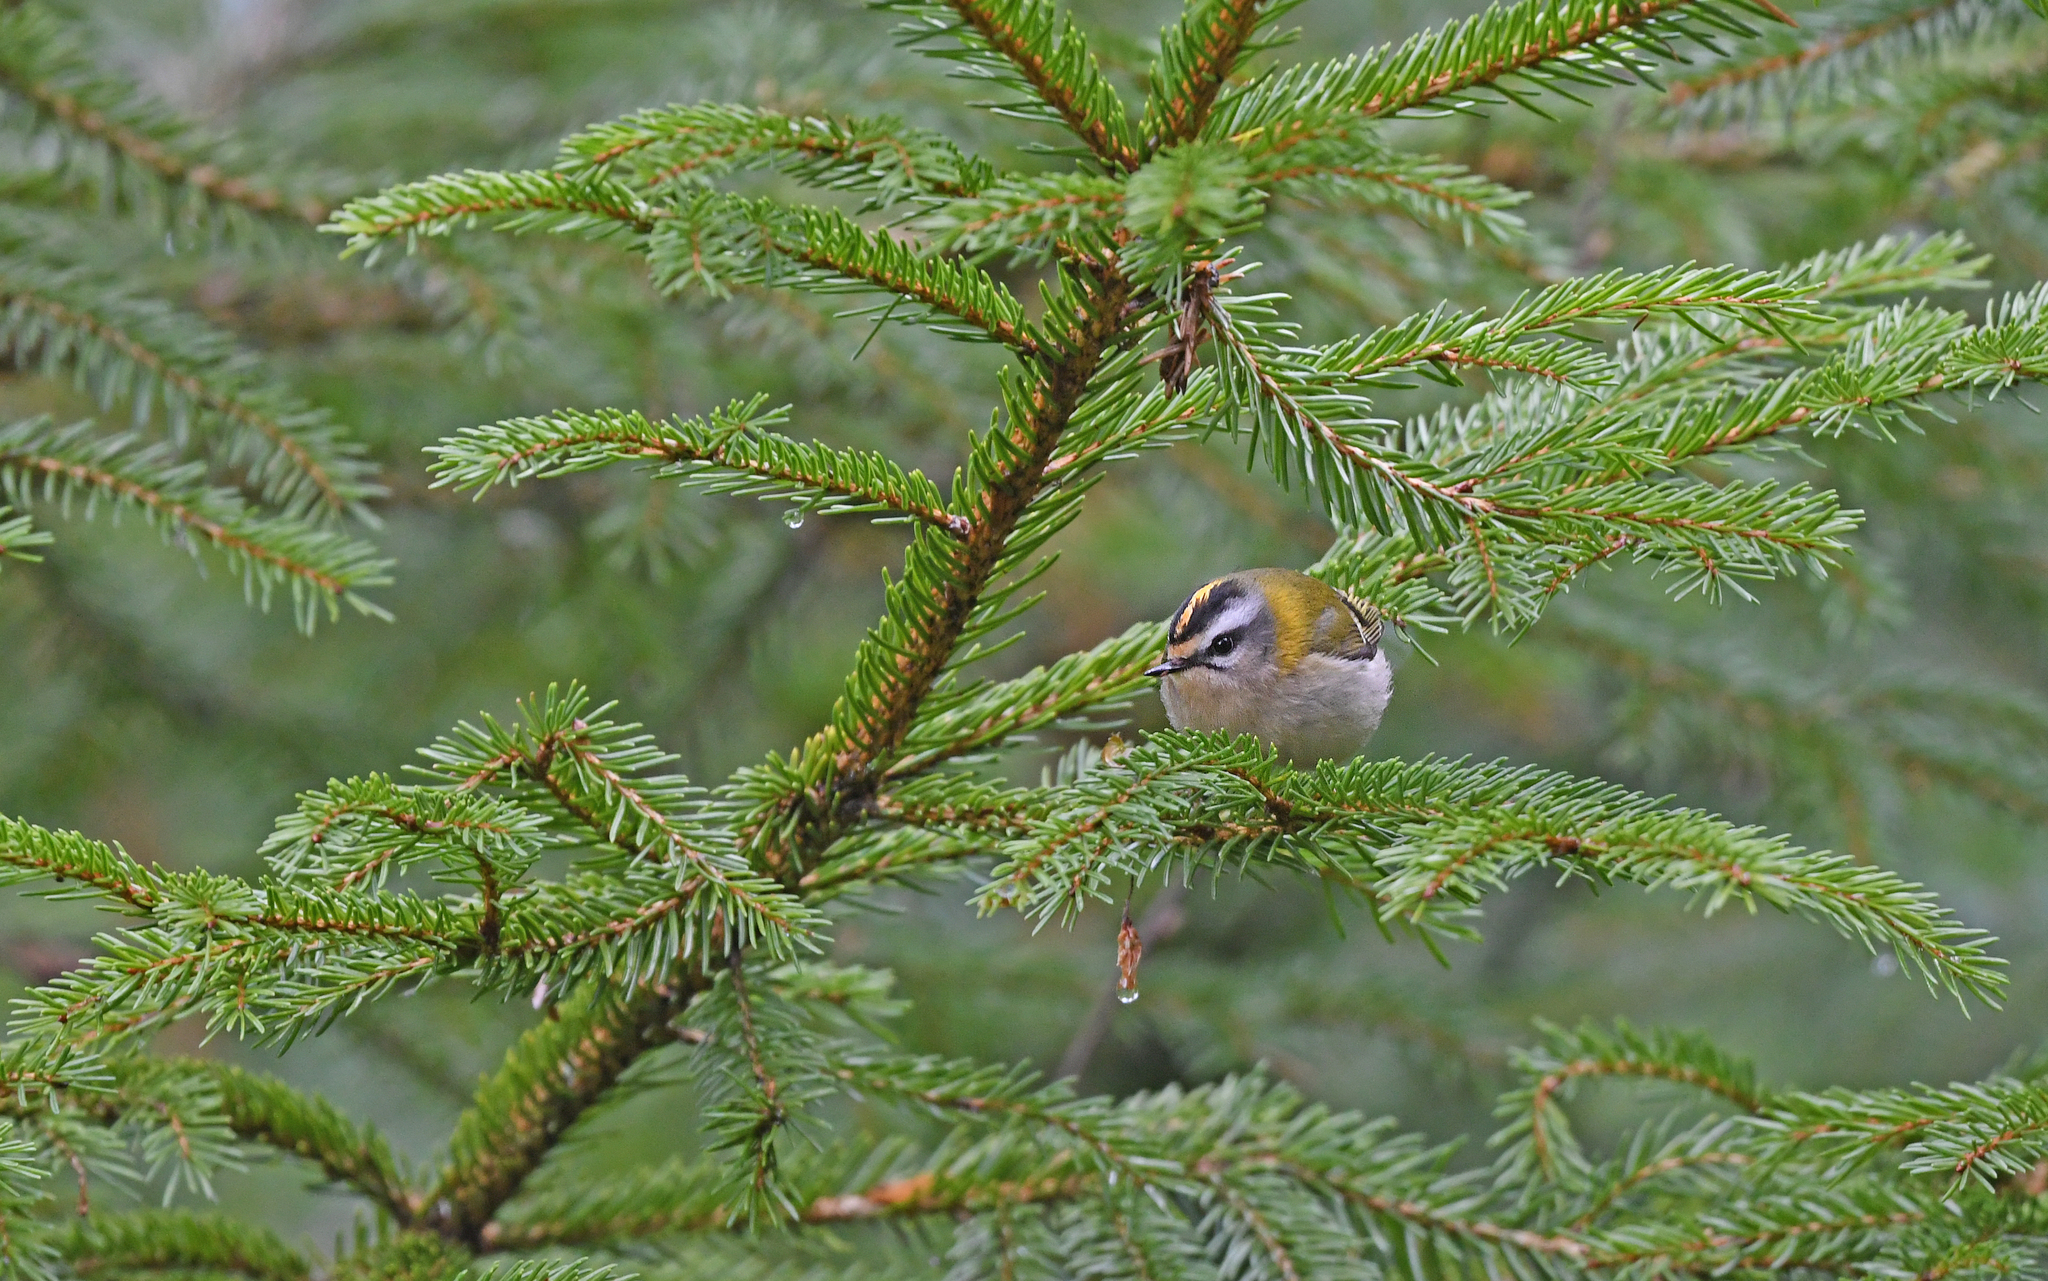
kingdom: Animalia
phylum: Chordata
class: Aves
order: Passeriformes
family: Regulidae
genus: Regulus
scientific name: Regulus ignicapilla
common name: Firecrest
